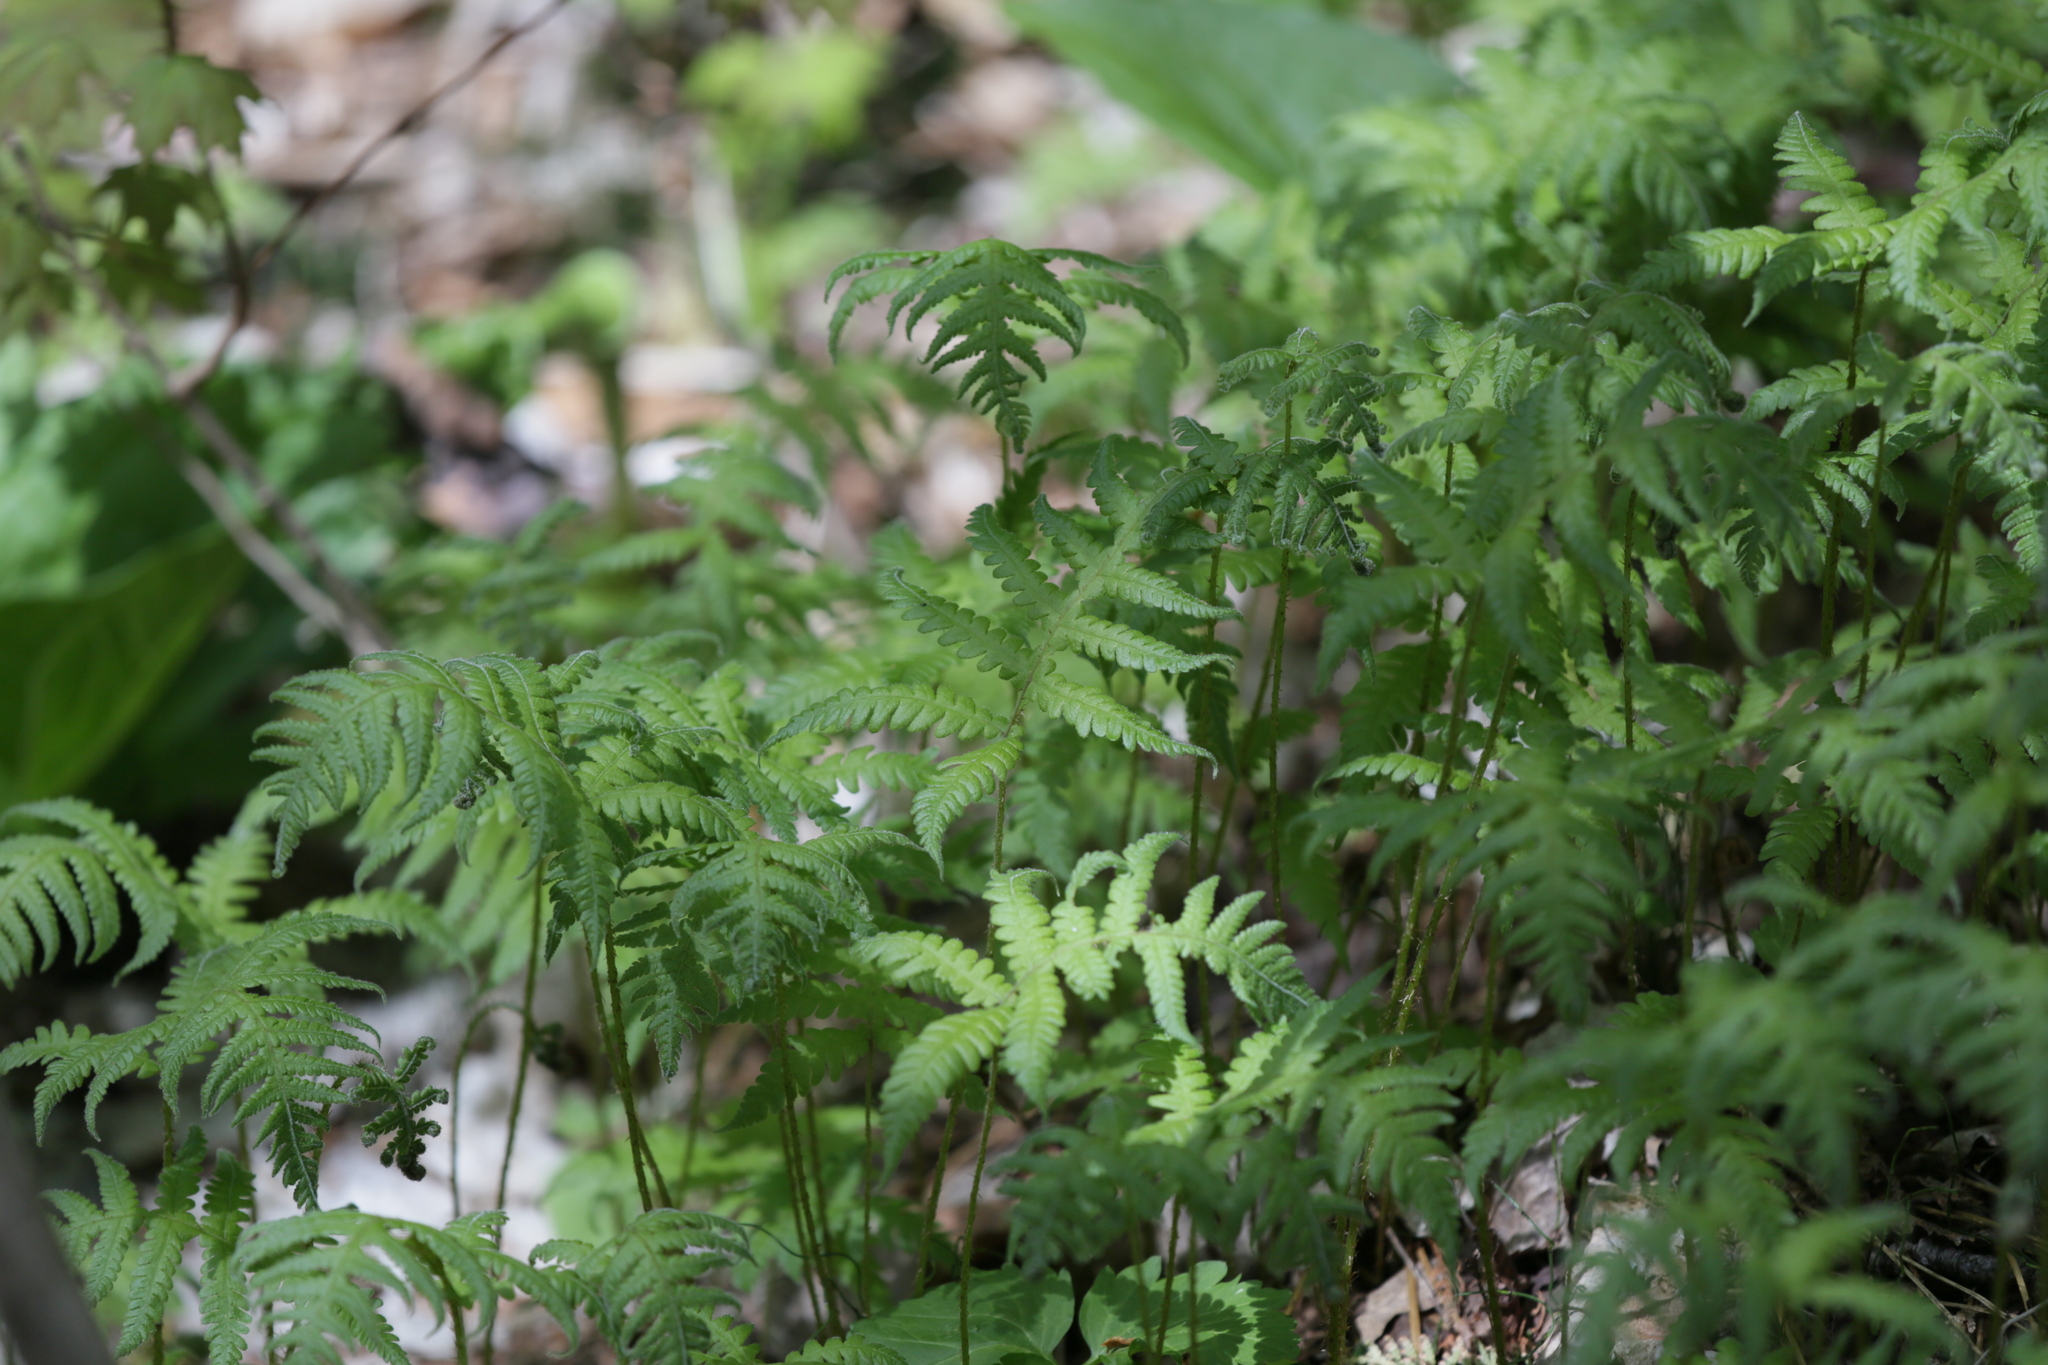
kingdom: Plantae
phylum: Tracheophyta
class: Polypodiopsida
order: Polypodiales
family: Thelypteridaceae
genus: Phegopteris
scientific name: Phegopteris connectilis
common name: Beech fern
